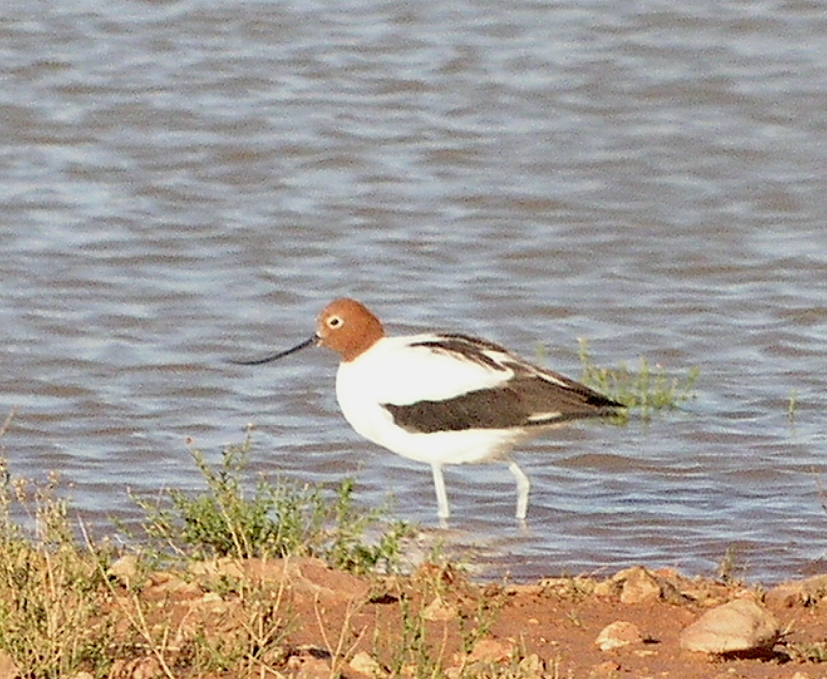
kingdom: Animalia
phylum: Chordata
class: Aves
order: Charadriiformes
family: Recurvirostridae
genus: Recurvirostra
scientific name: Recurvirostra novaehollandiae
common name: Red-necked avocet
